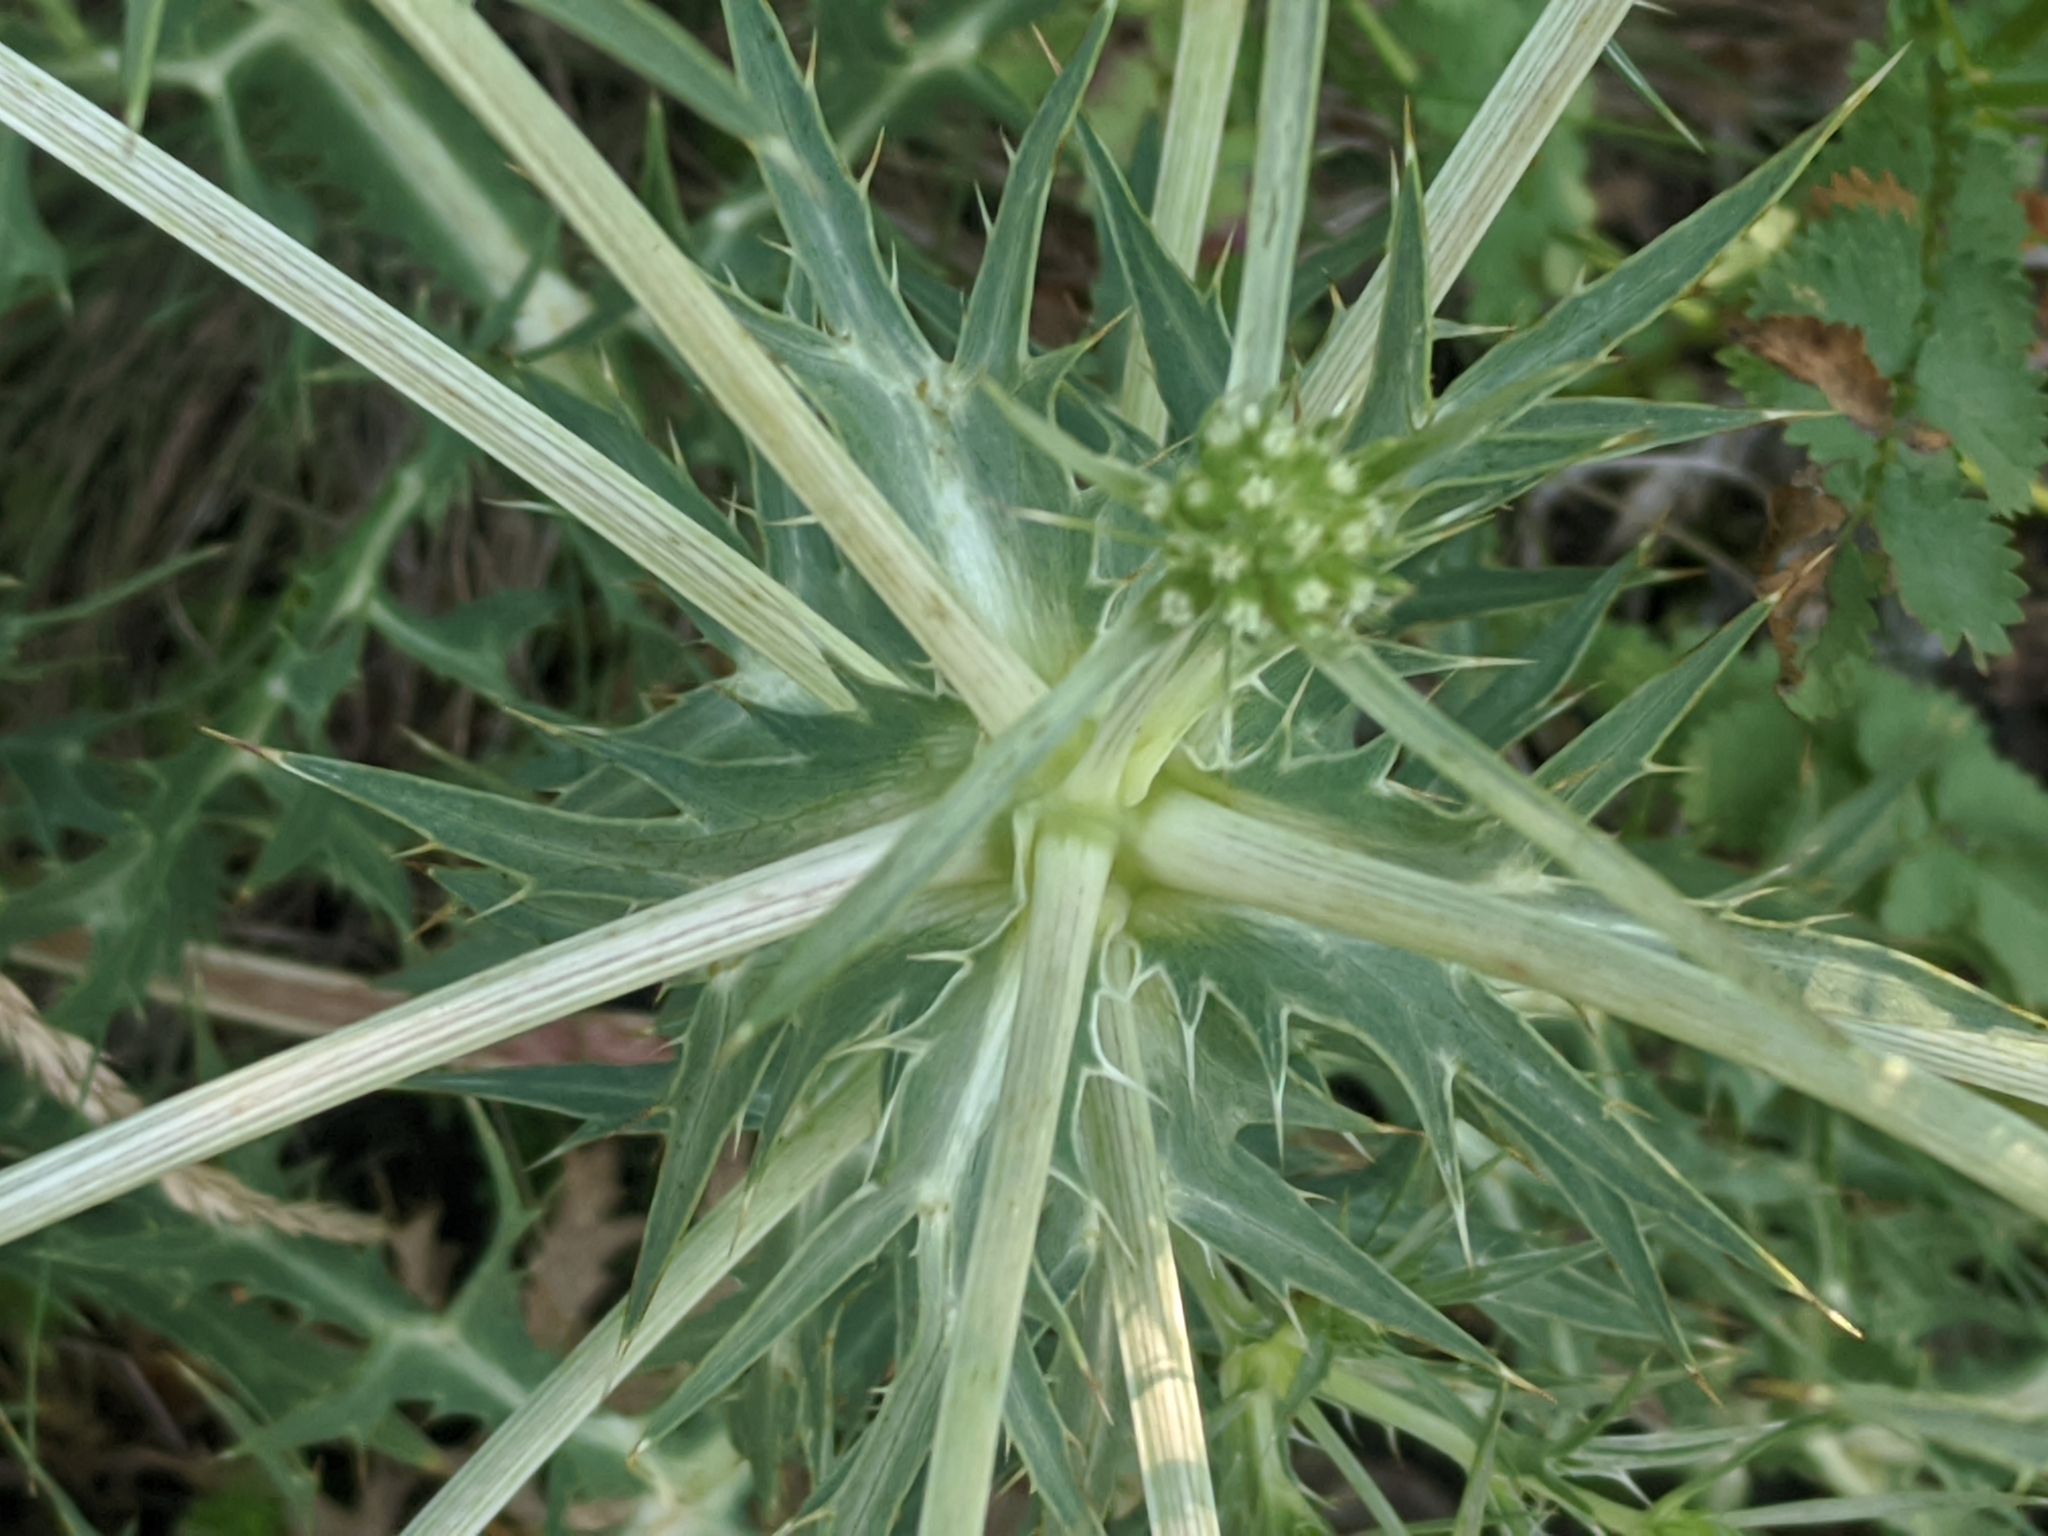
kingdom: Plantae
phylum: Tracheophyta
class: Magnoliopsida
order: Apiales
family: Apiaceae
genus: Eryngium
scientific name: Eryngium campestre
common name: Field eryngo
